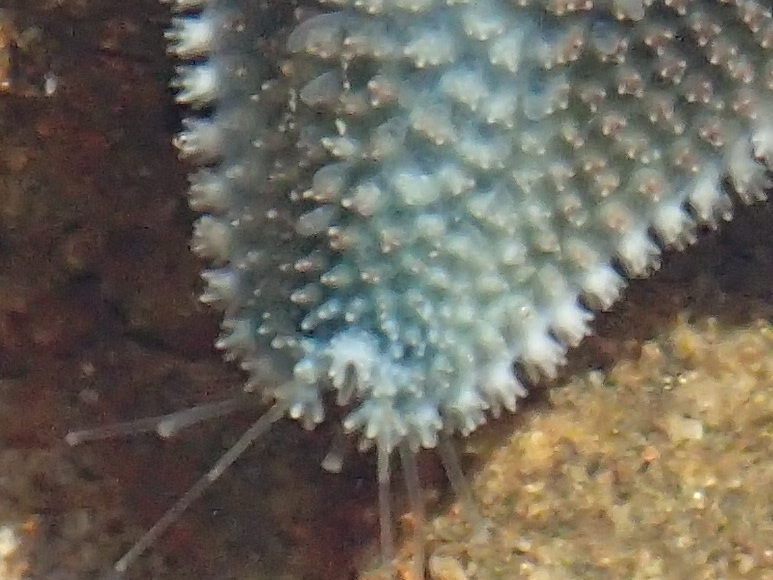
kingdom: Animalia
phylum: Echinodermata
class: Asteroidea
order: Valvatida
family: Asterinidae
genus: Patiriella
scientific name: Patiriella regularis
